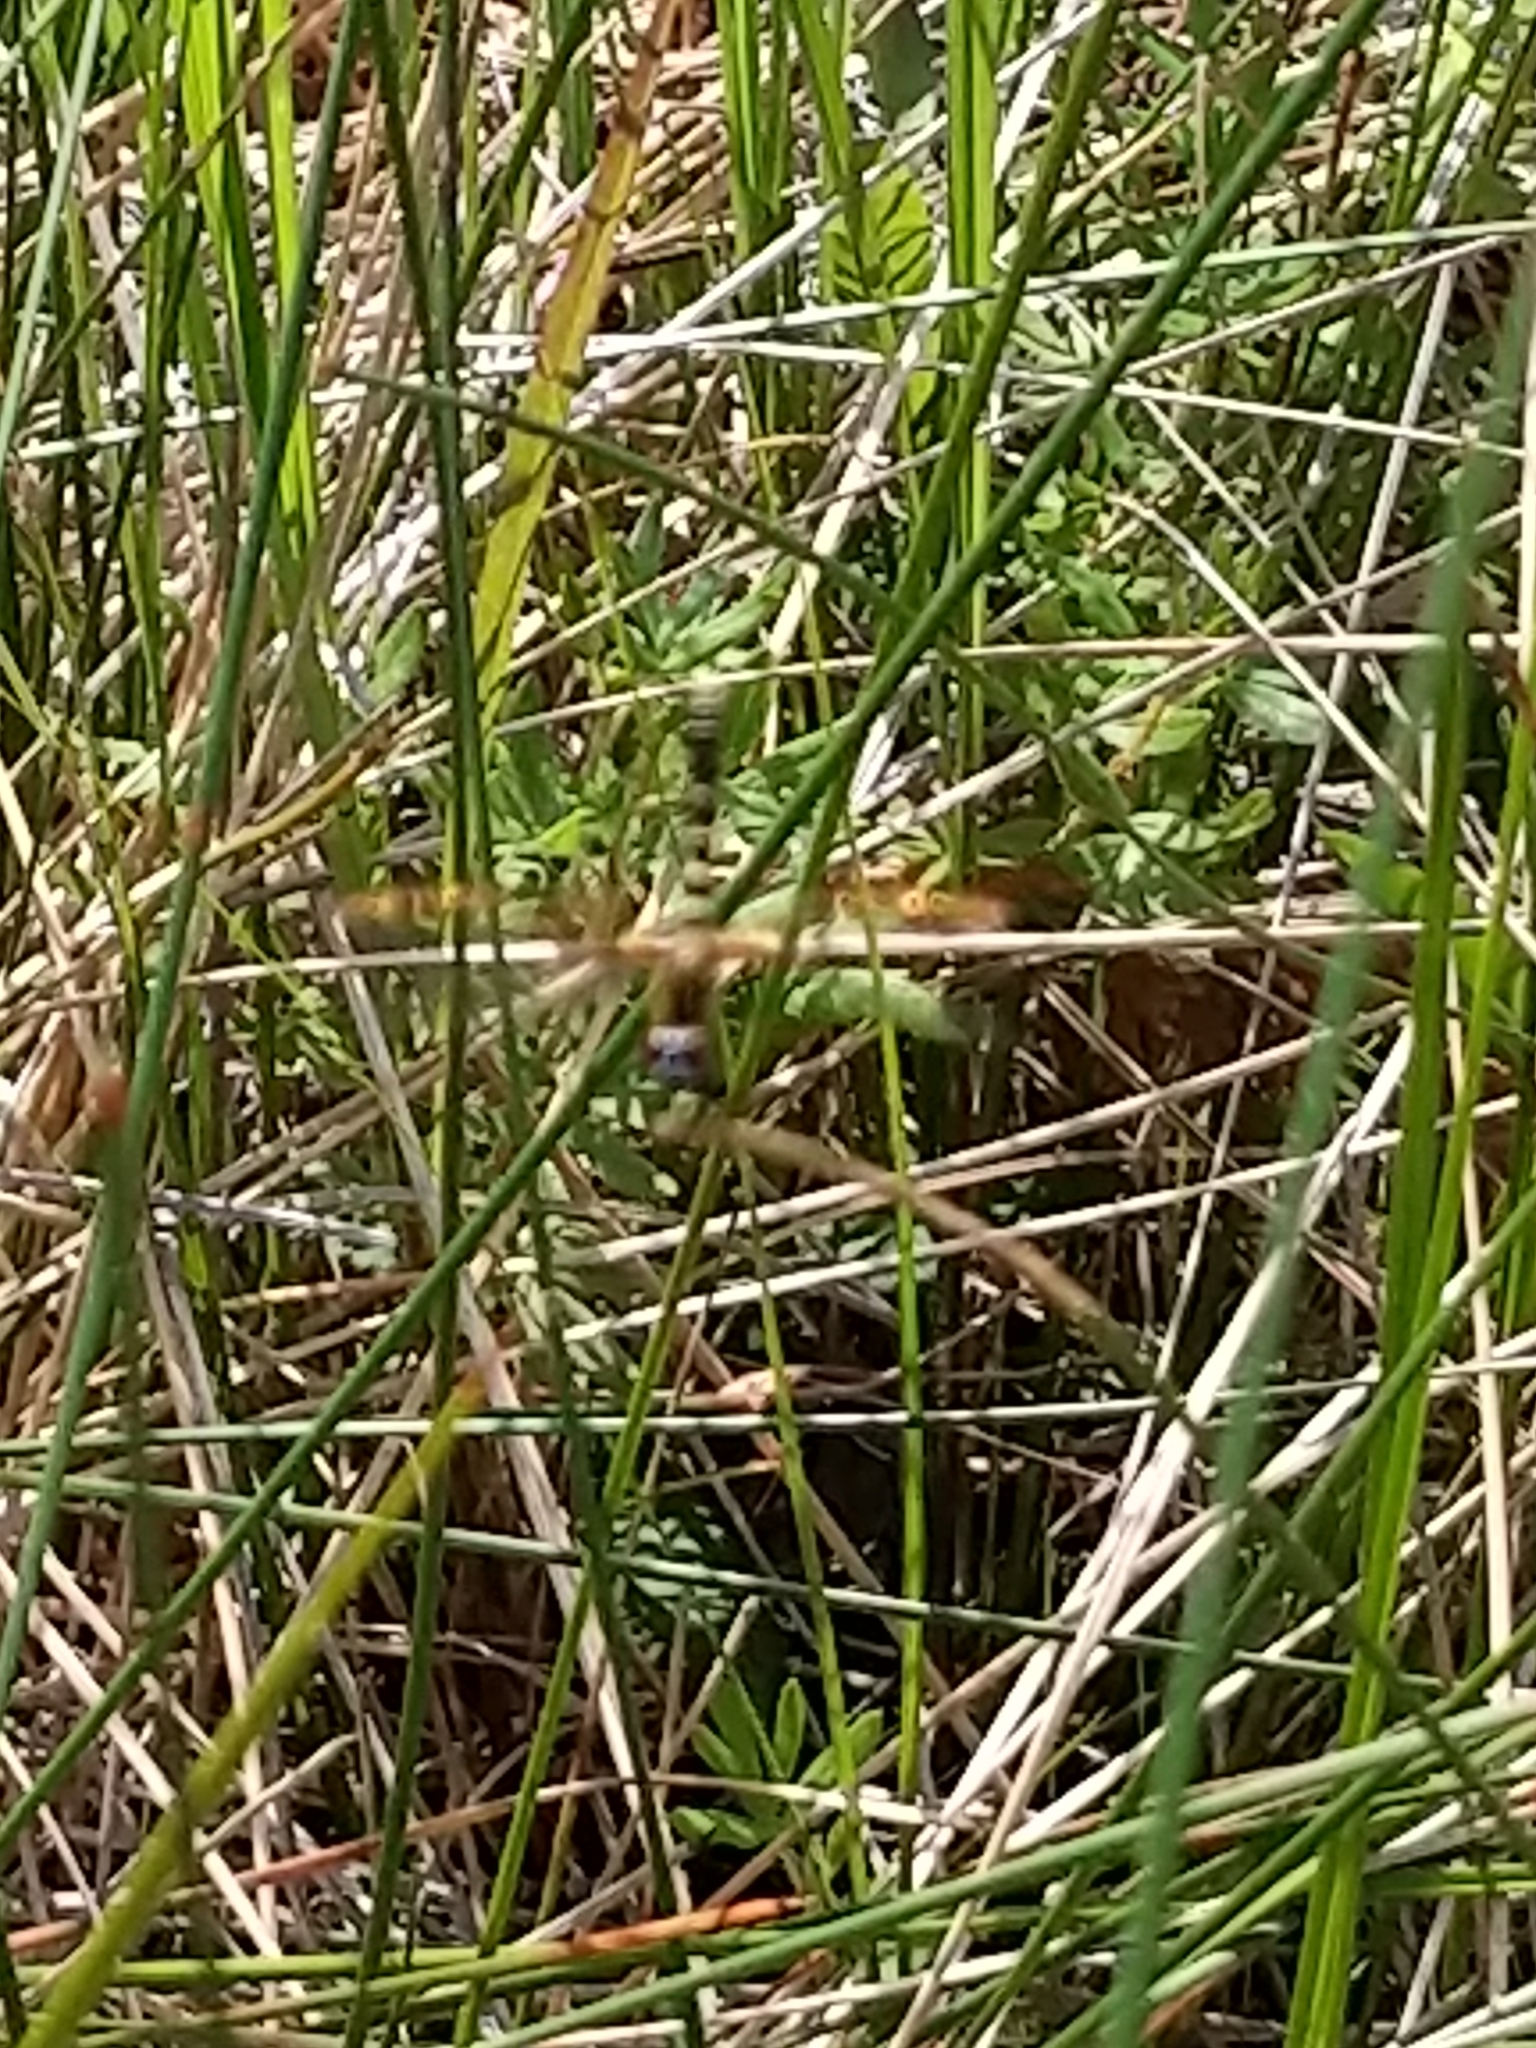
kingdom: Animalia
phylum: Arthropoda
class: Insecta
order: Odonata
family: Libellulidae
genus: Nannothemis
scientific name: Nannothemis bella
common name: Elfin skimmer
